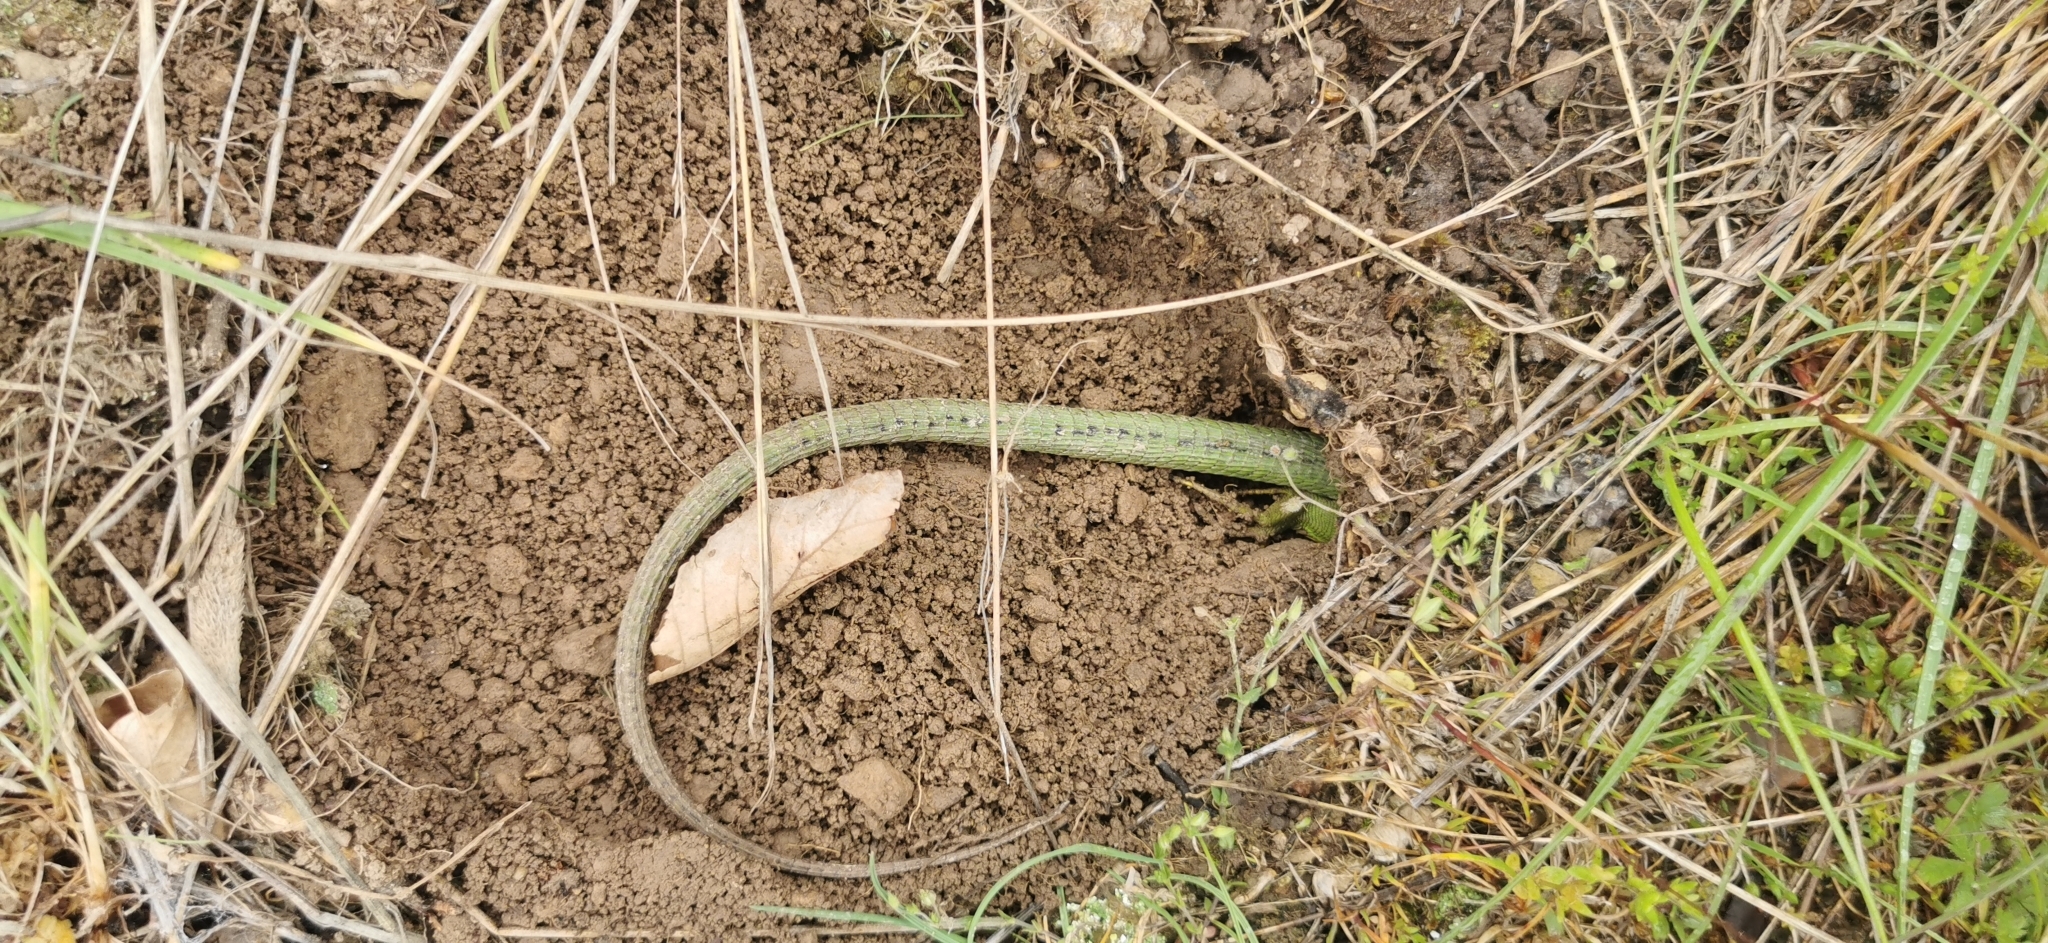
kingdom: Animalia
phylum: Chordata
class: Squamata
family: Lacertidae
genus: Lacerta
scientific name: Lacerta bilineata
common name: Western green lizard
